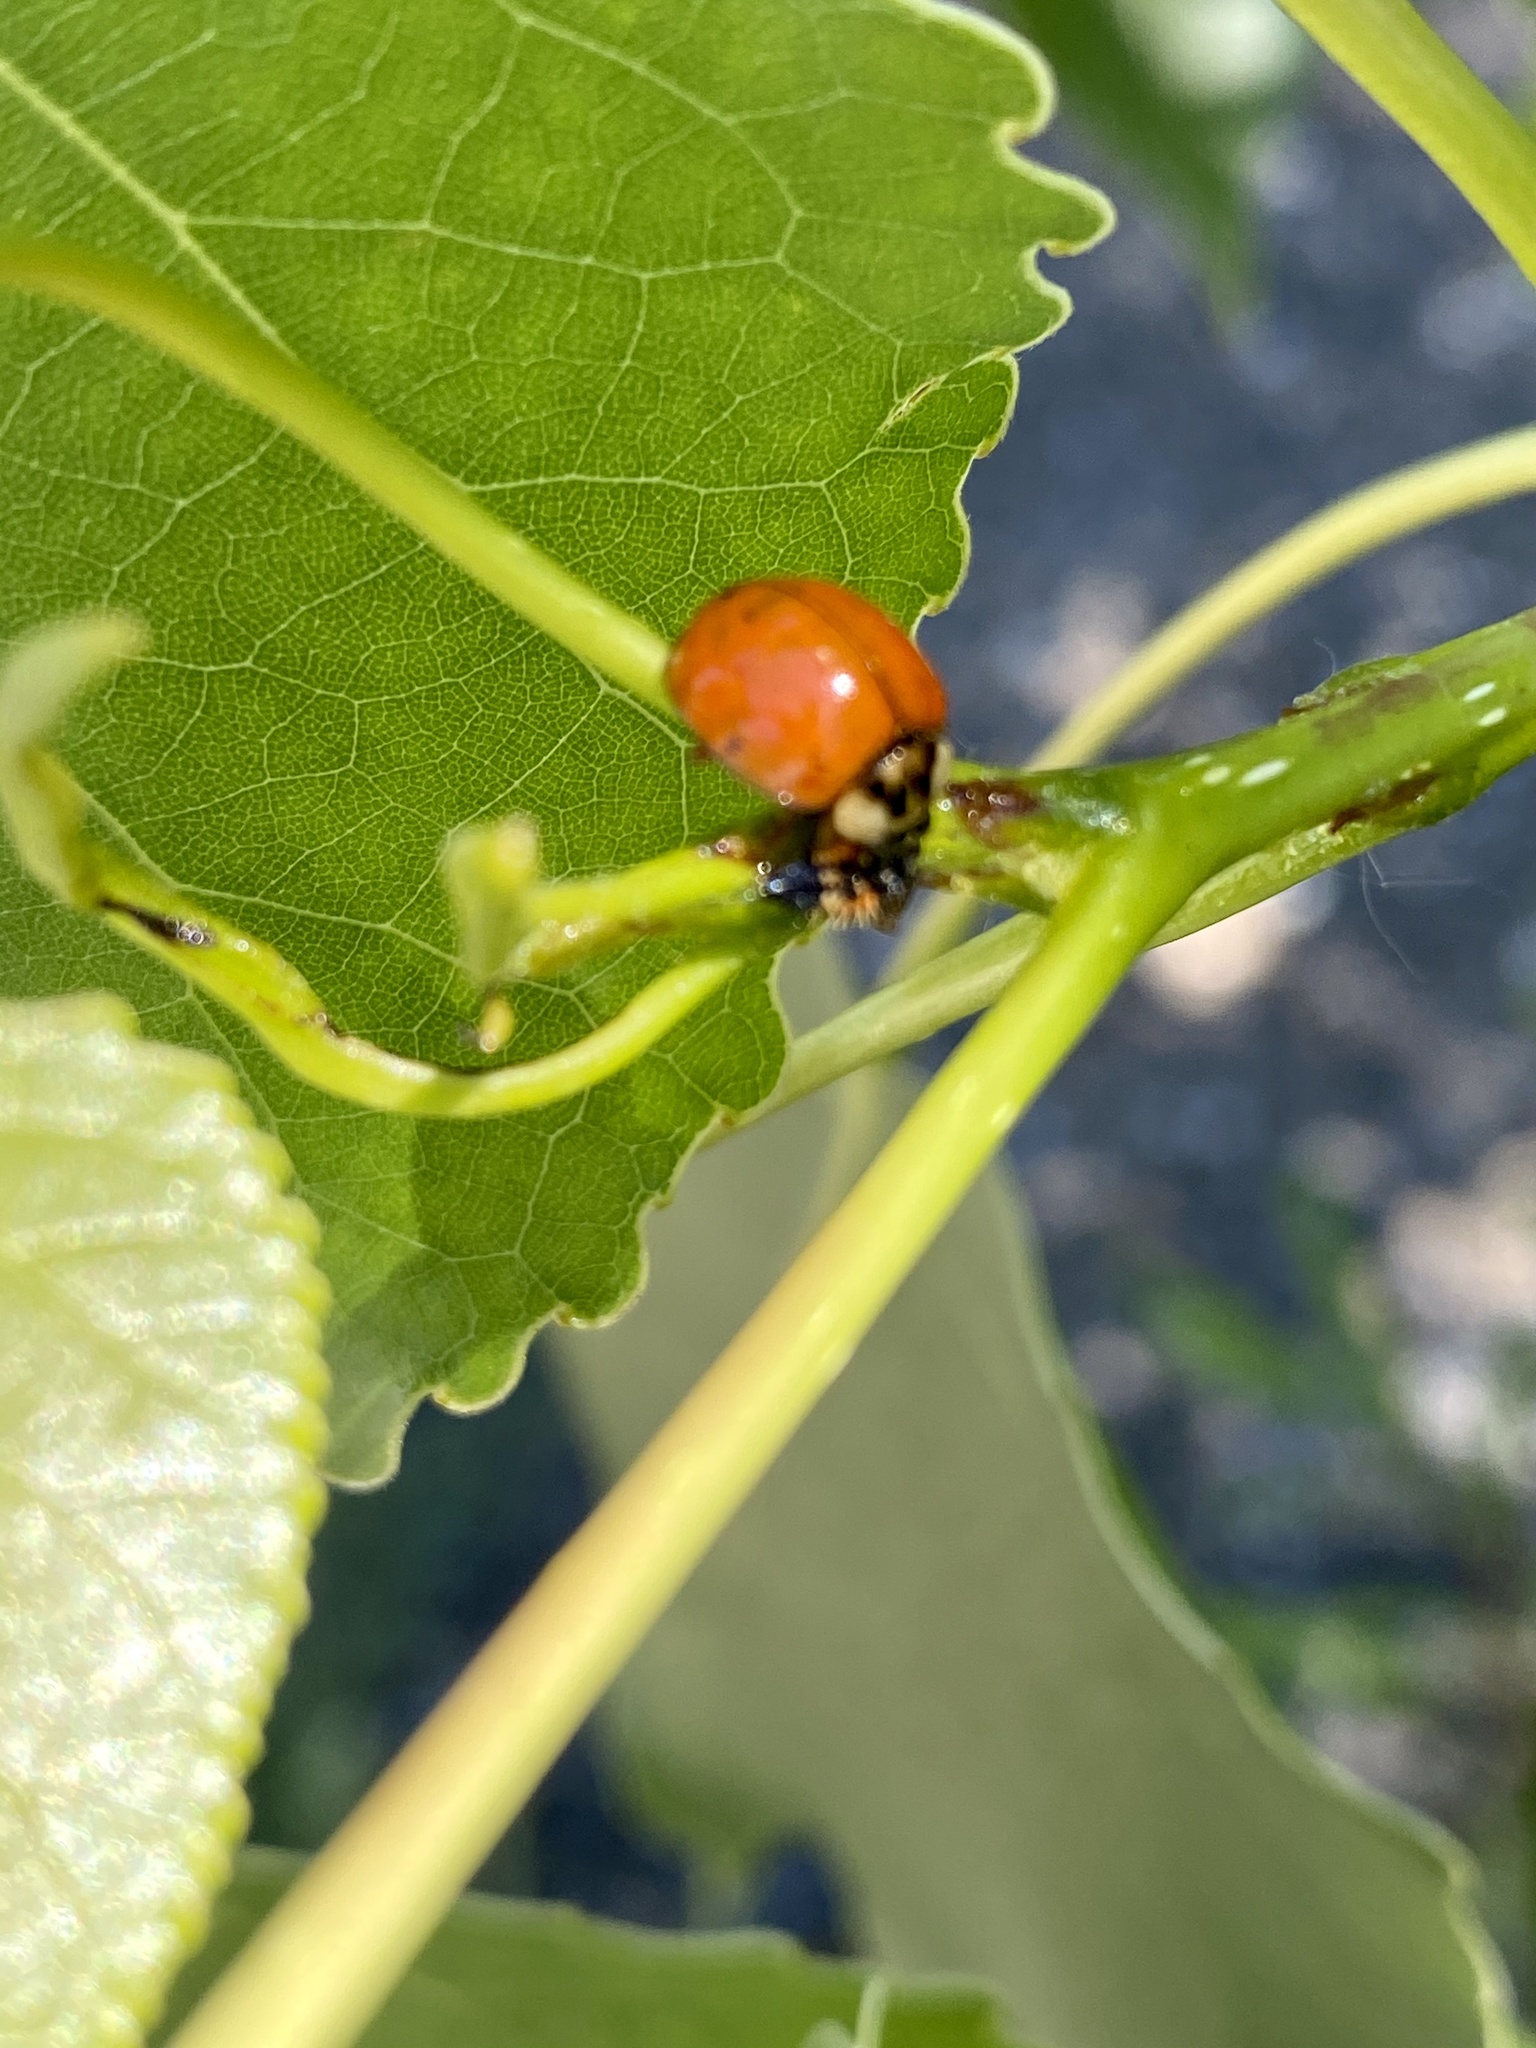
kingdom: Animalia
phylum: Arthropoda
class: Insecta
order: Coleoptera
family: Coccinellidae
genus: Harmonia
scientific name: Harmonia axyridis
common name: Harlequin ladybird
